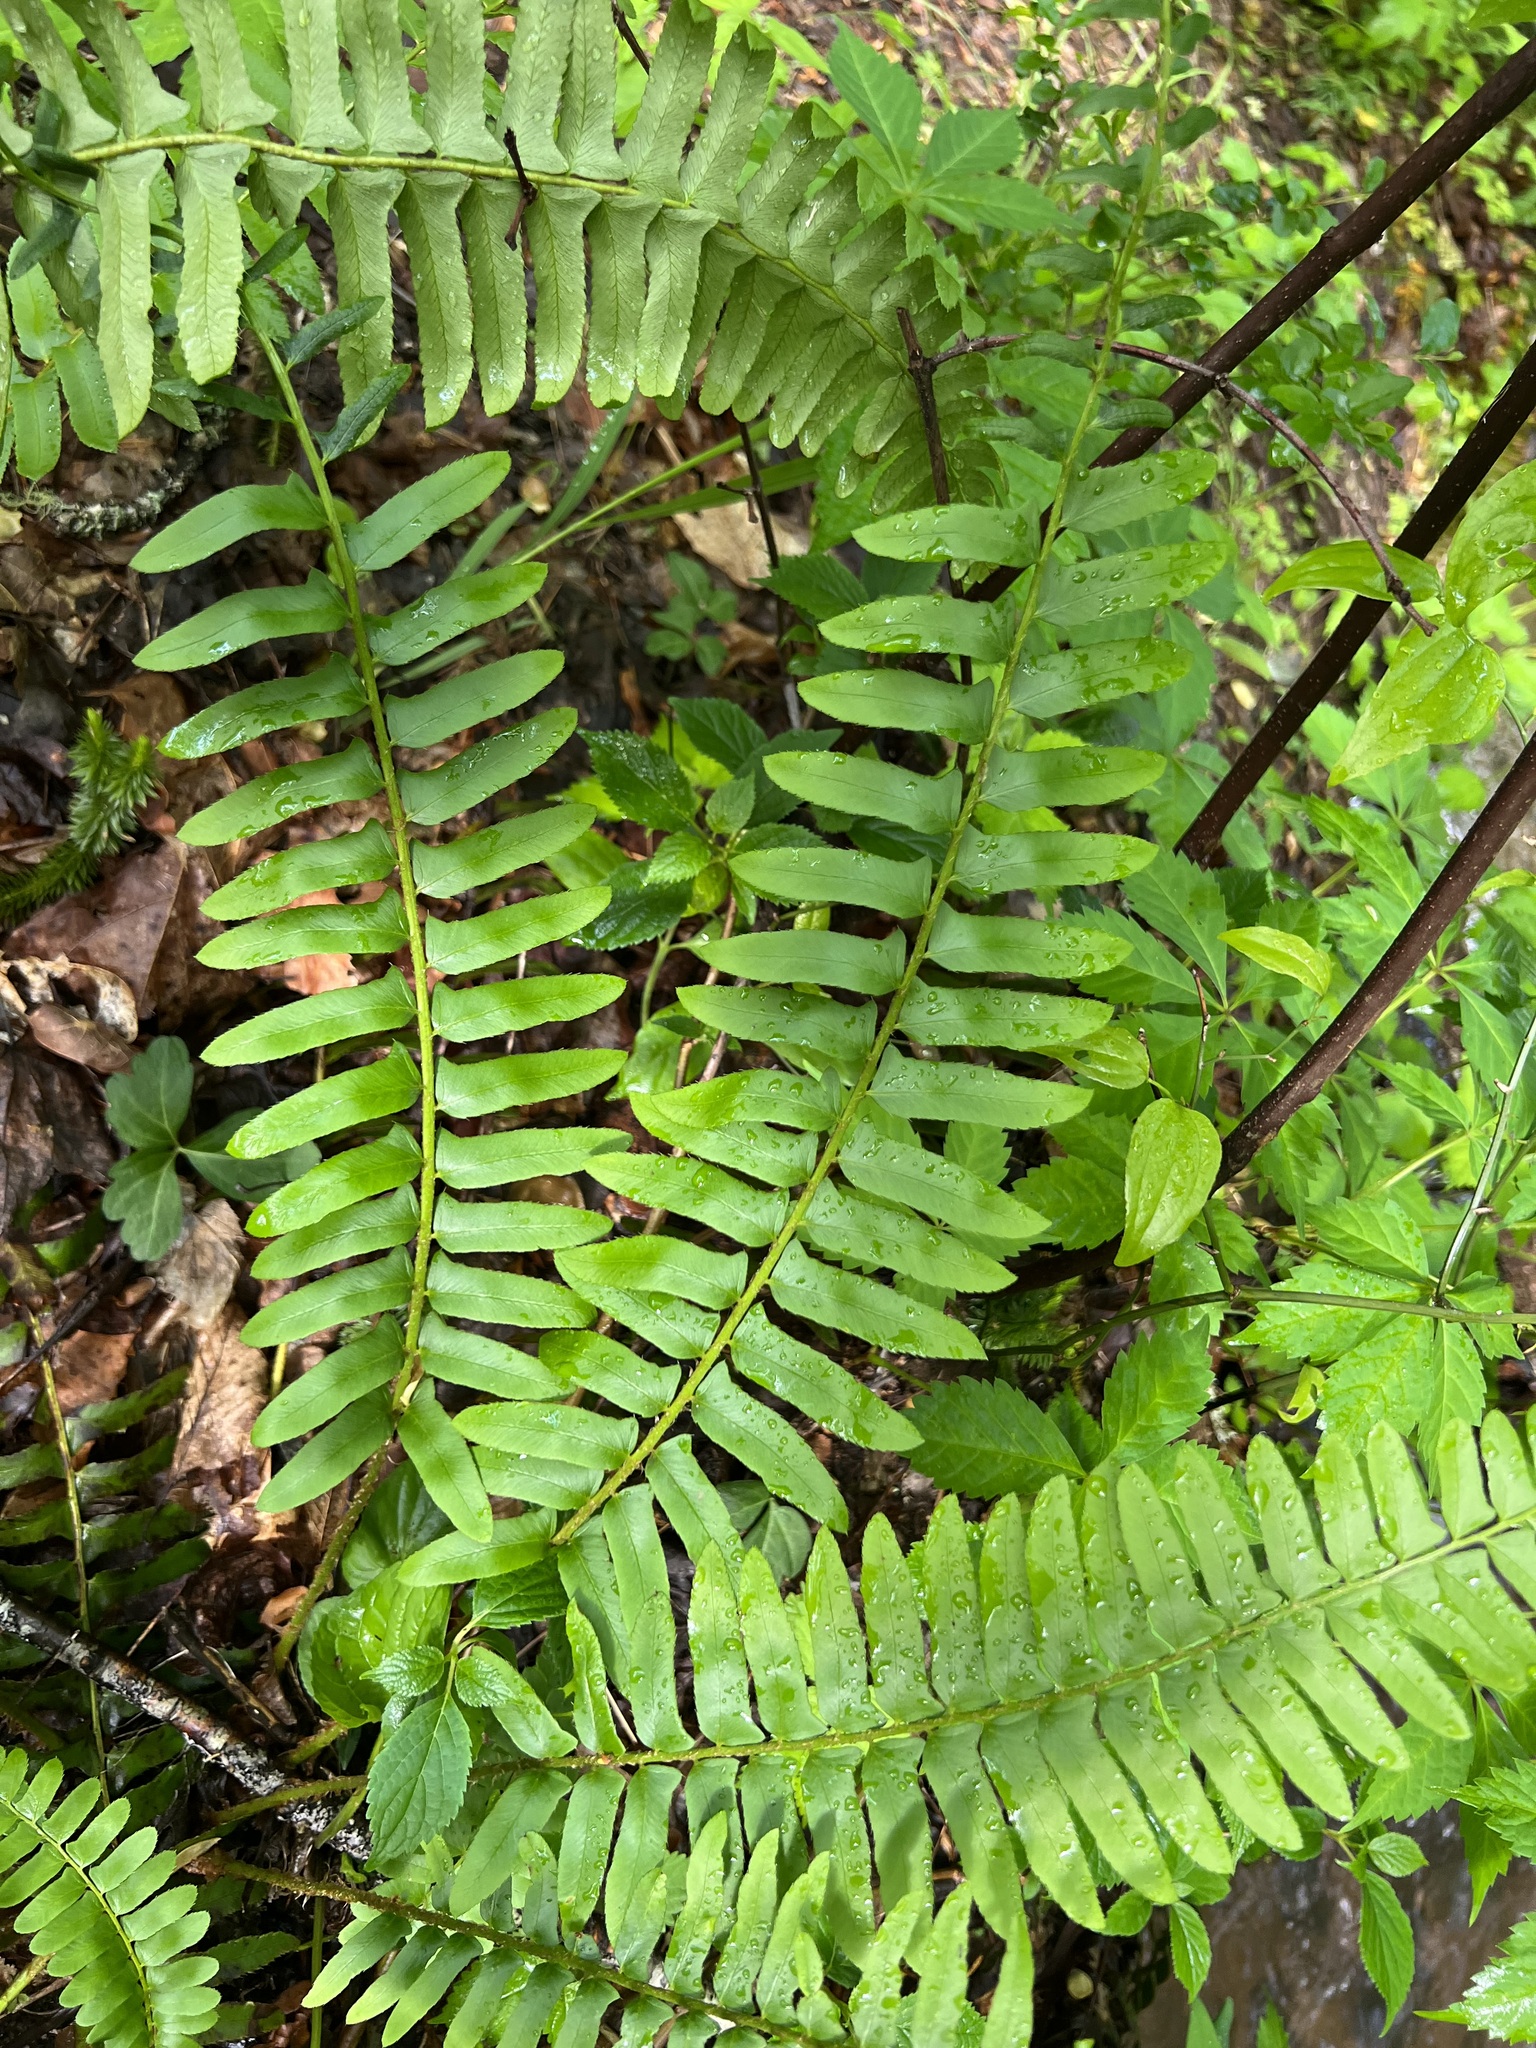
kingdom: Plantae
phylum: Tracheophyta
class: Polypodiopsida
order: Polypodiales
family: Dryopteridaceae
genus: Polystichum
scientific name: Polystichum acrostichoides
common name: Christmas fern
